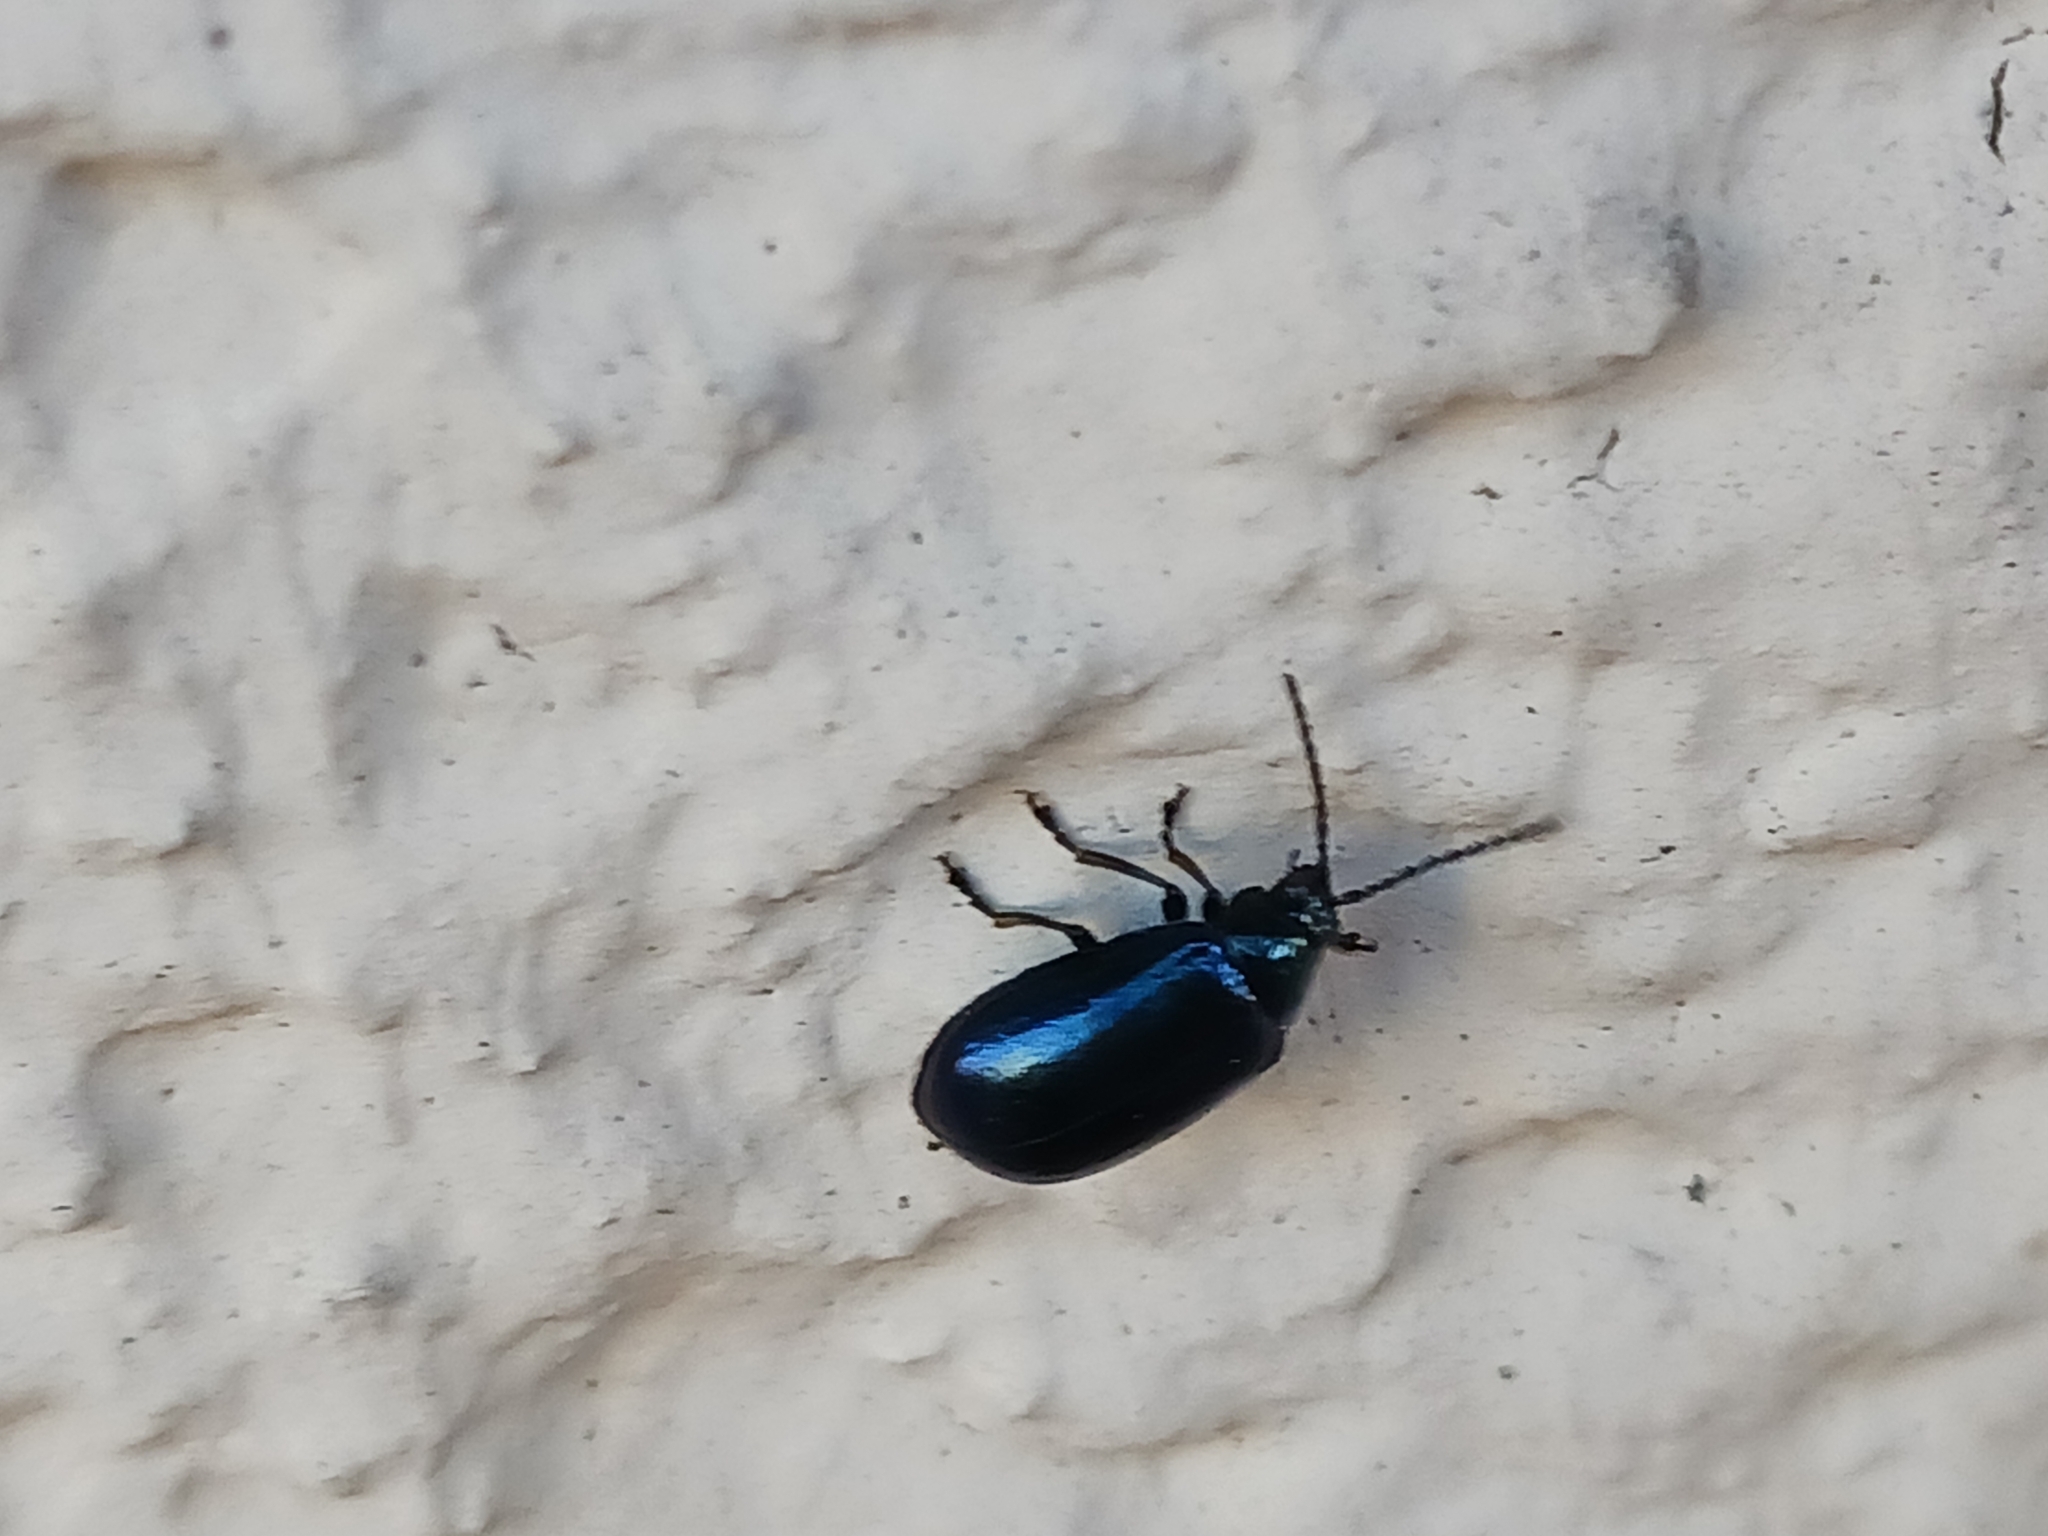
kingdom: Animalia
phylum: Arthropoda
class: Insecta
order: Coleoptera
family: Chrysomelidae
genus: Agelastica
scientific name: Agelastica alni
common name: Alder leaf beetle
